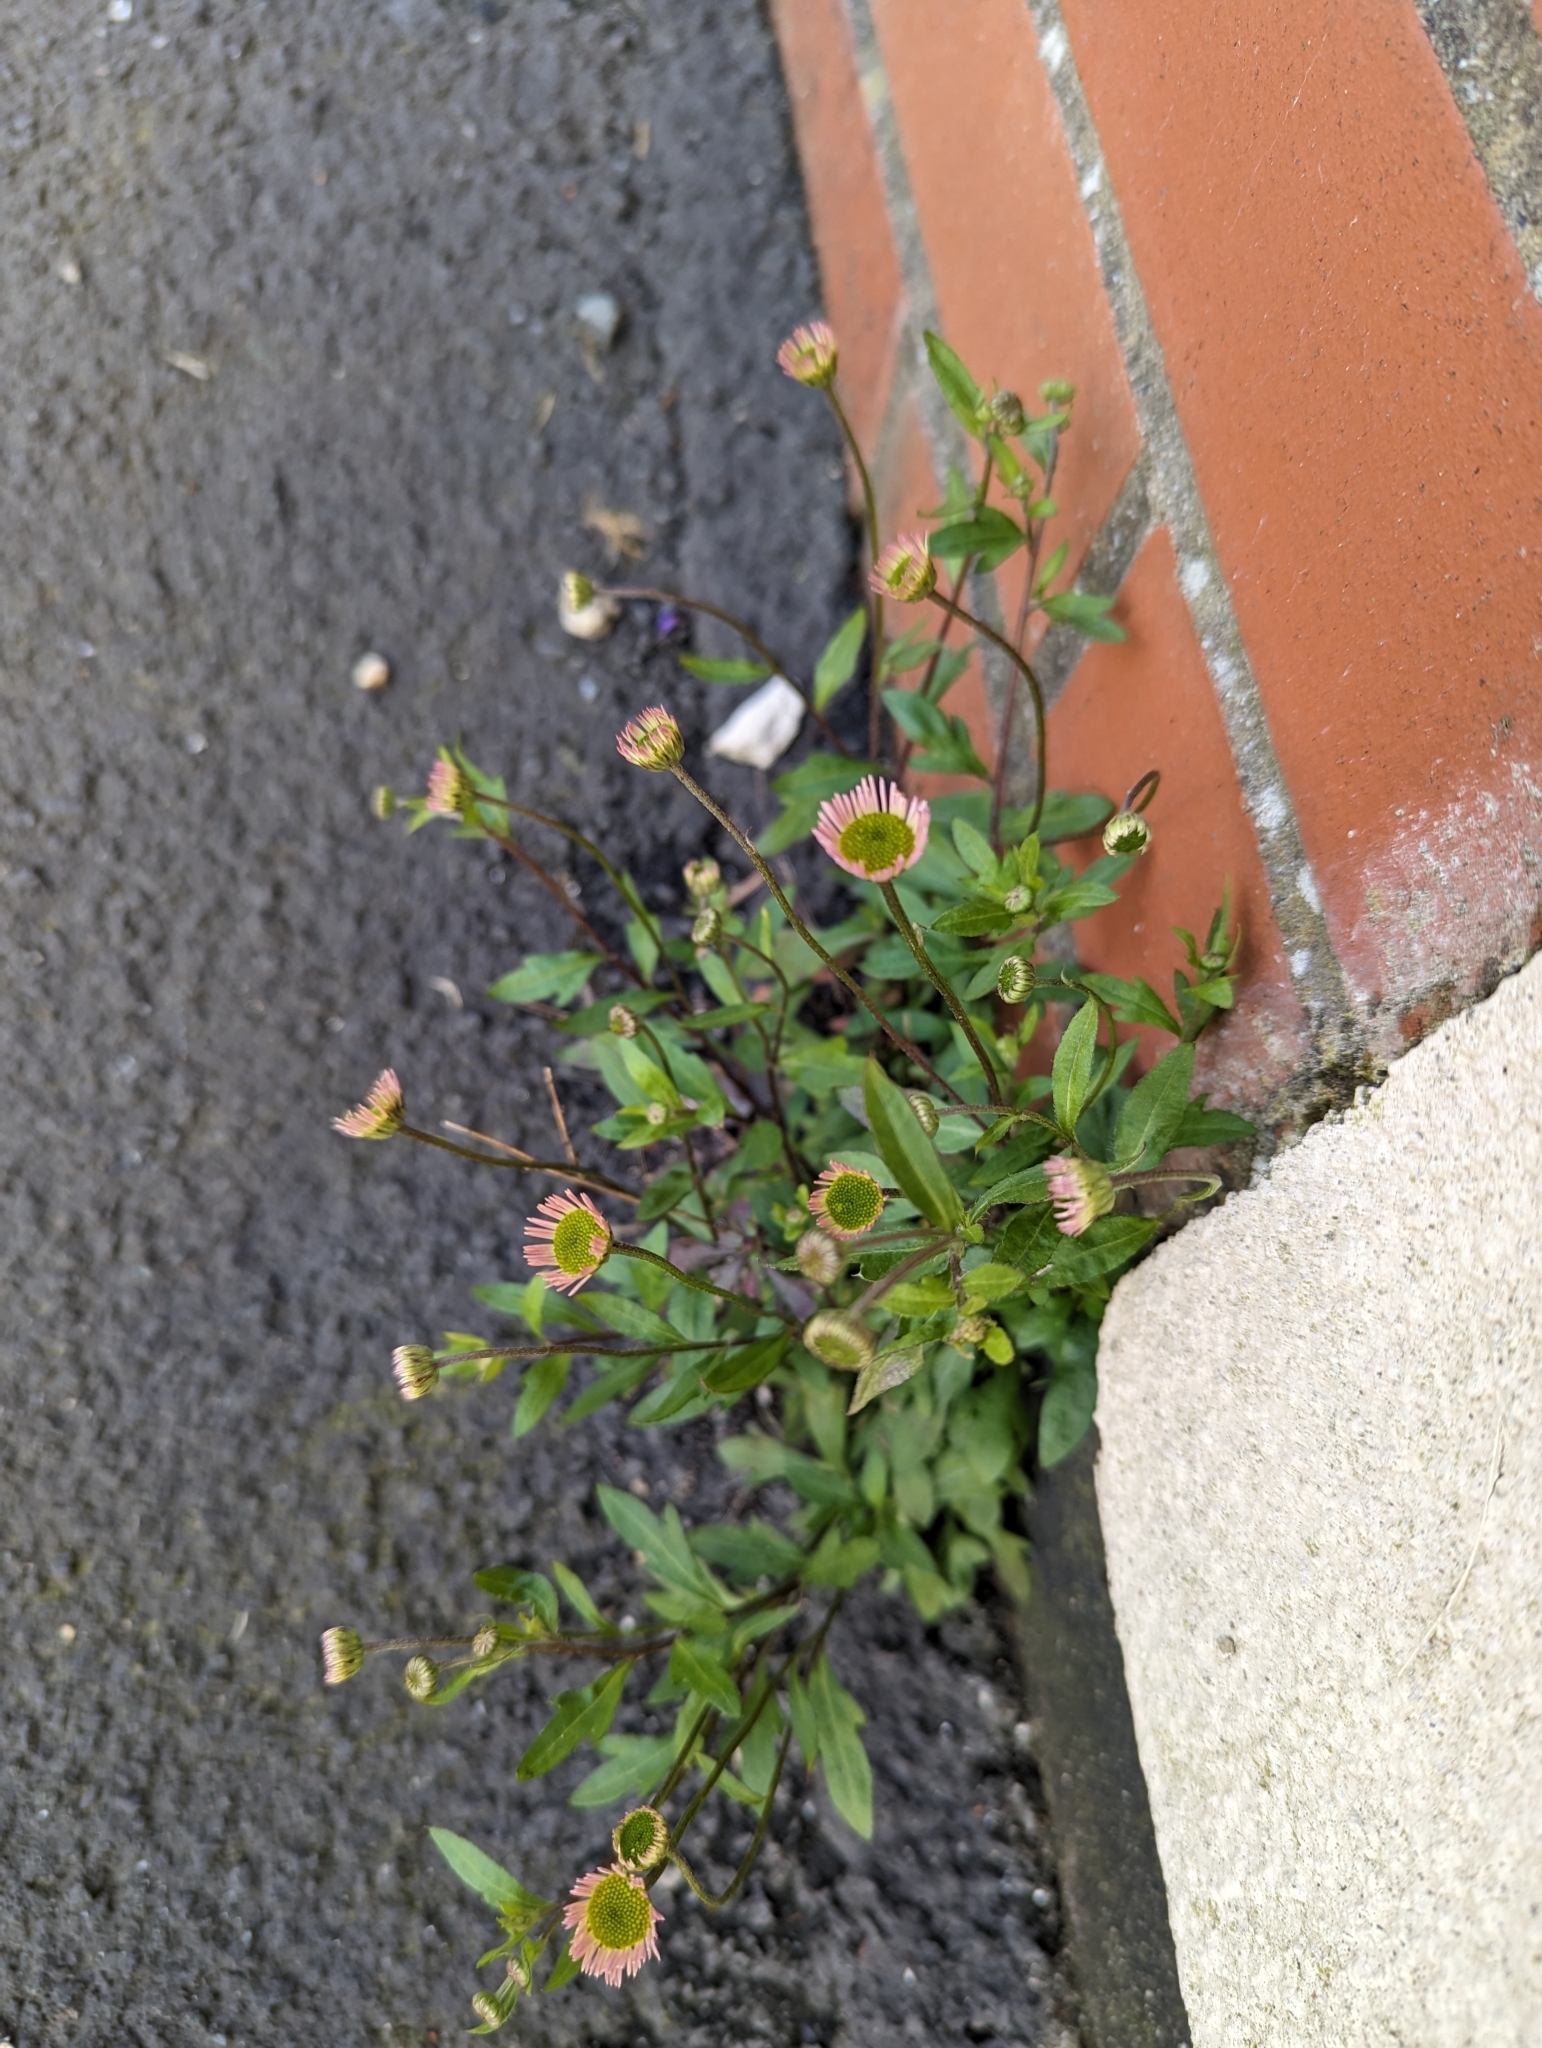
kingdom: Plantae
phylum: Tracheophyta
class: Magnoliopsida
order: Asterales
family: Asteraceae
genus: Erigeron
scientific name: Erigeron karvinskianus
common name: Mexican fleabane
